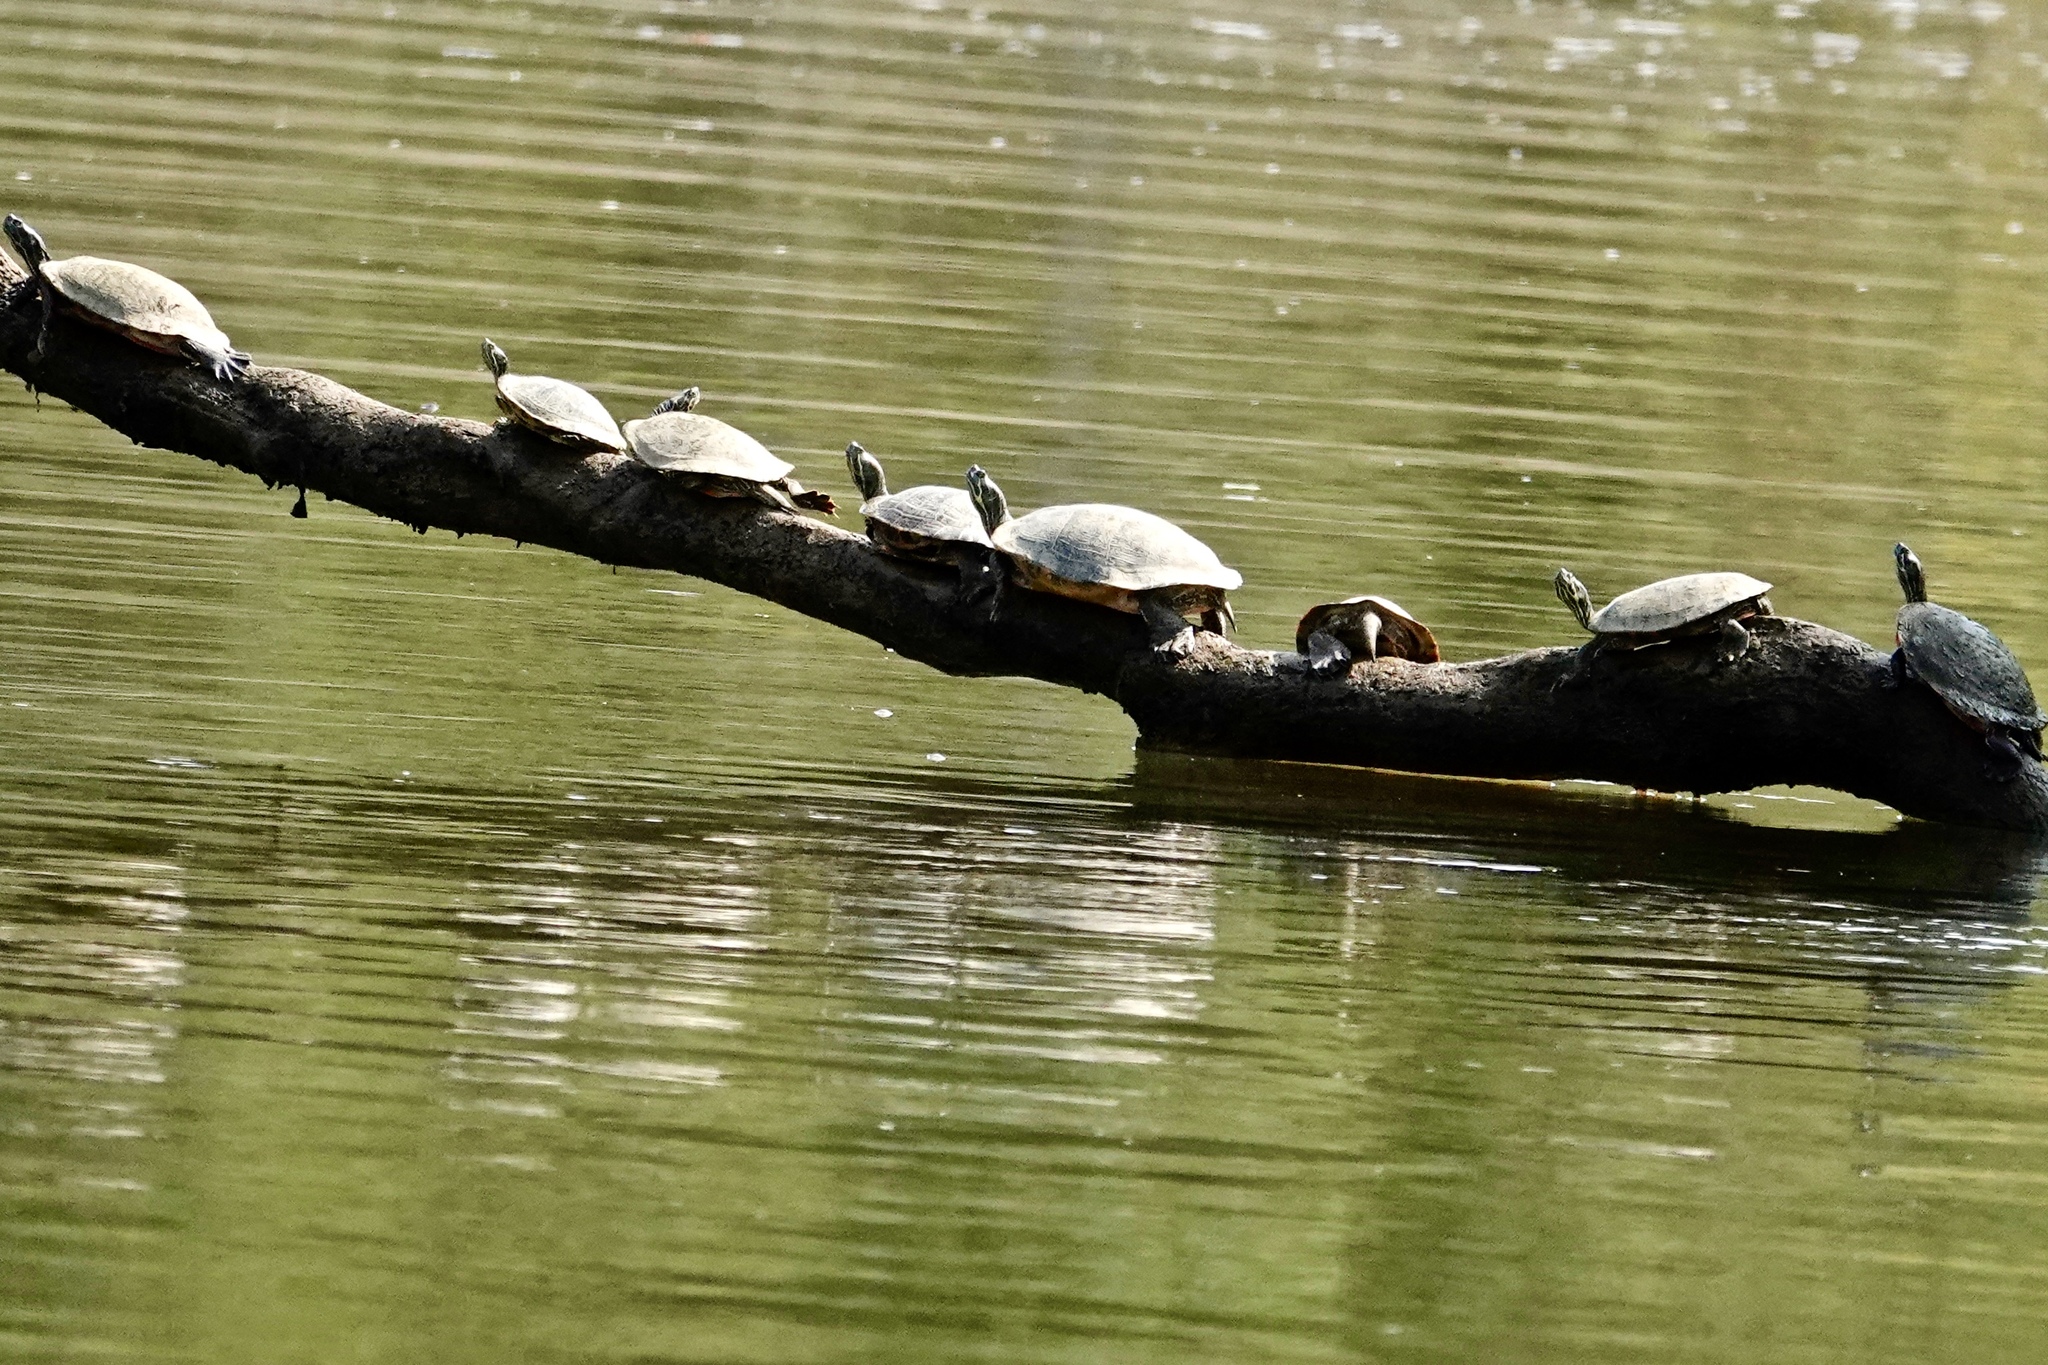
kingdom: Animalia
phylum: Chordata
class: Testudines
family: Emydidae
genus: Pseudemys
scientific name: Pseudemys concinna
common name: Eastern river cooter
